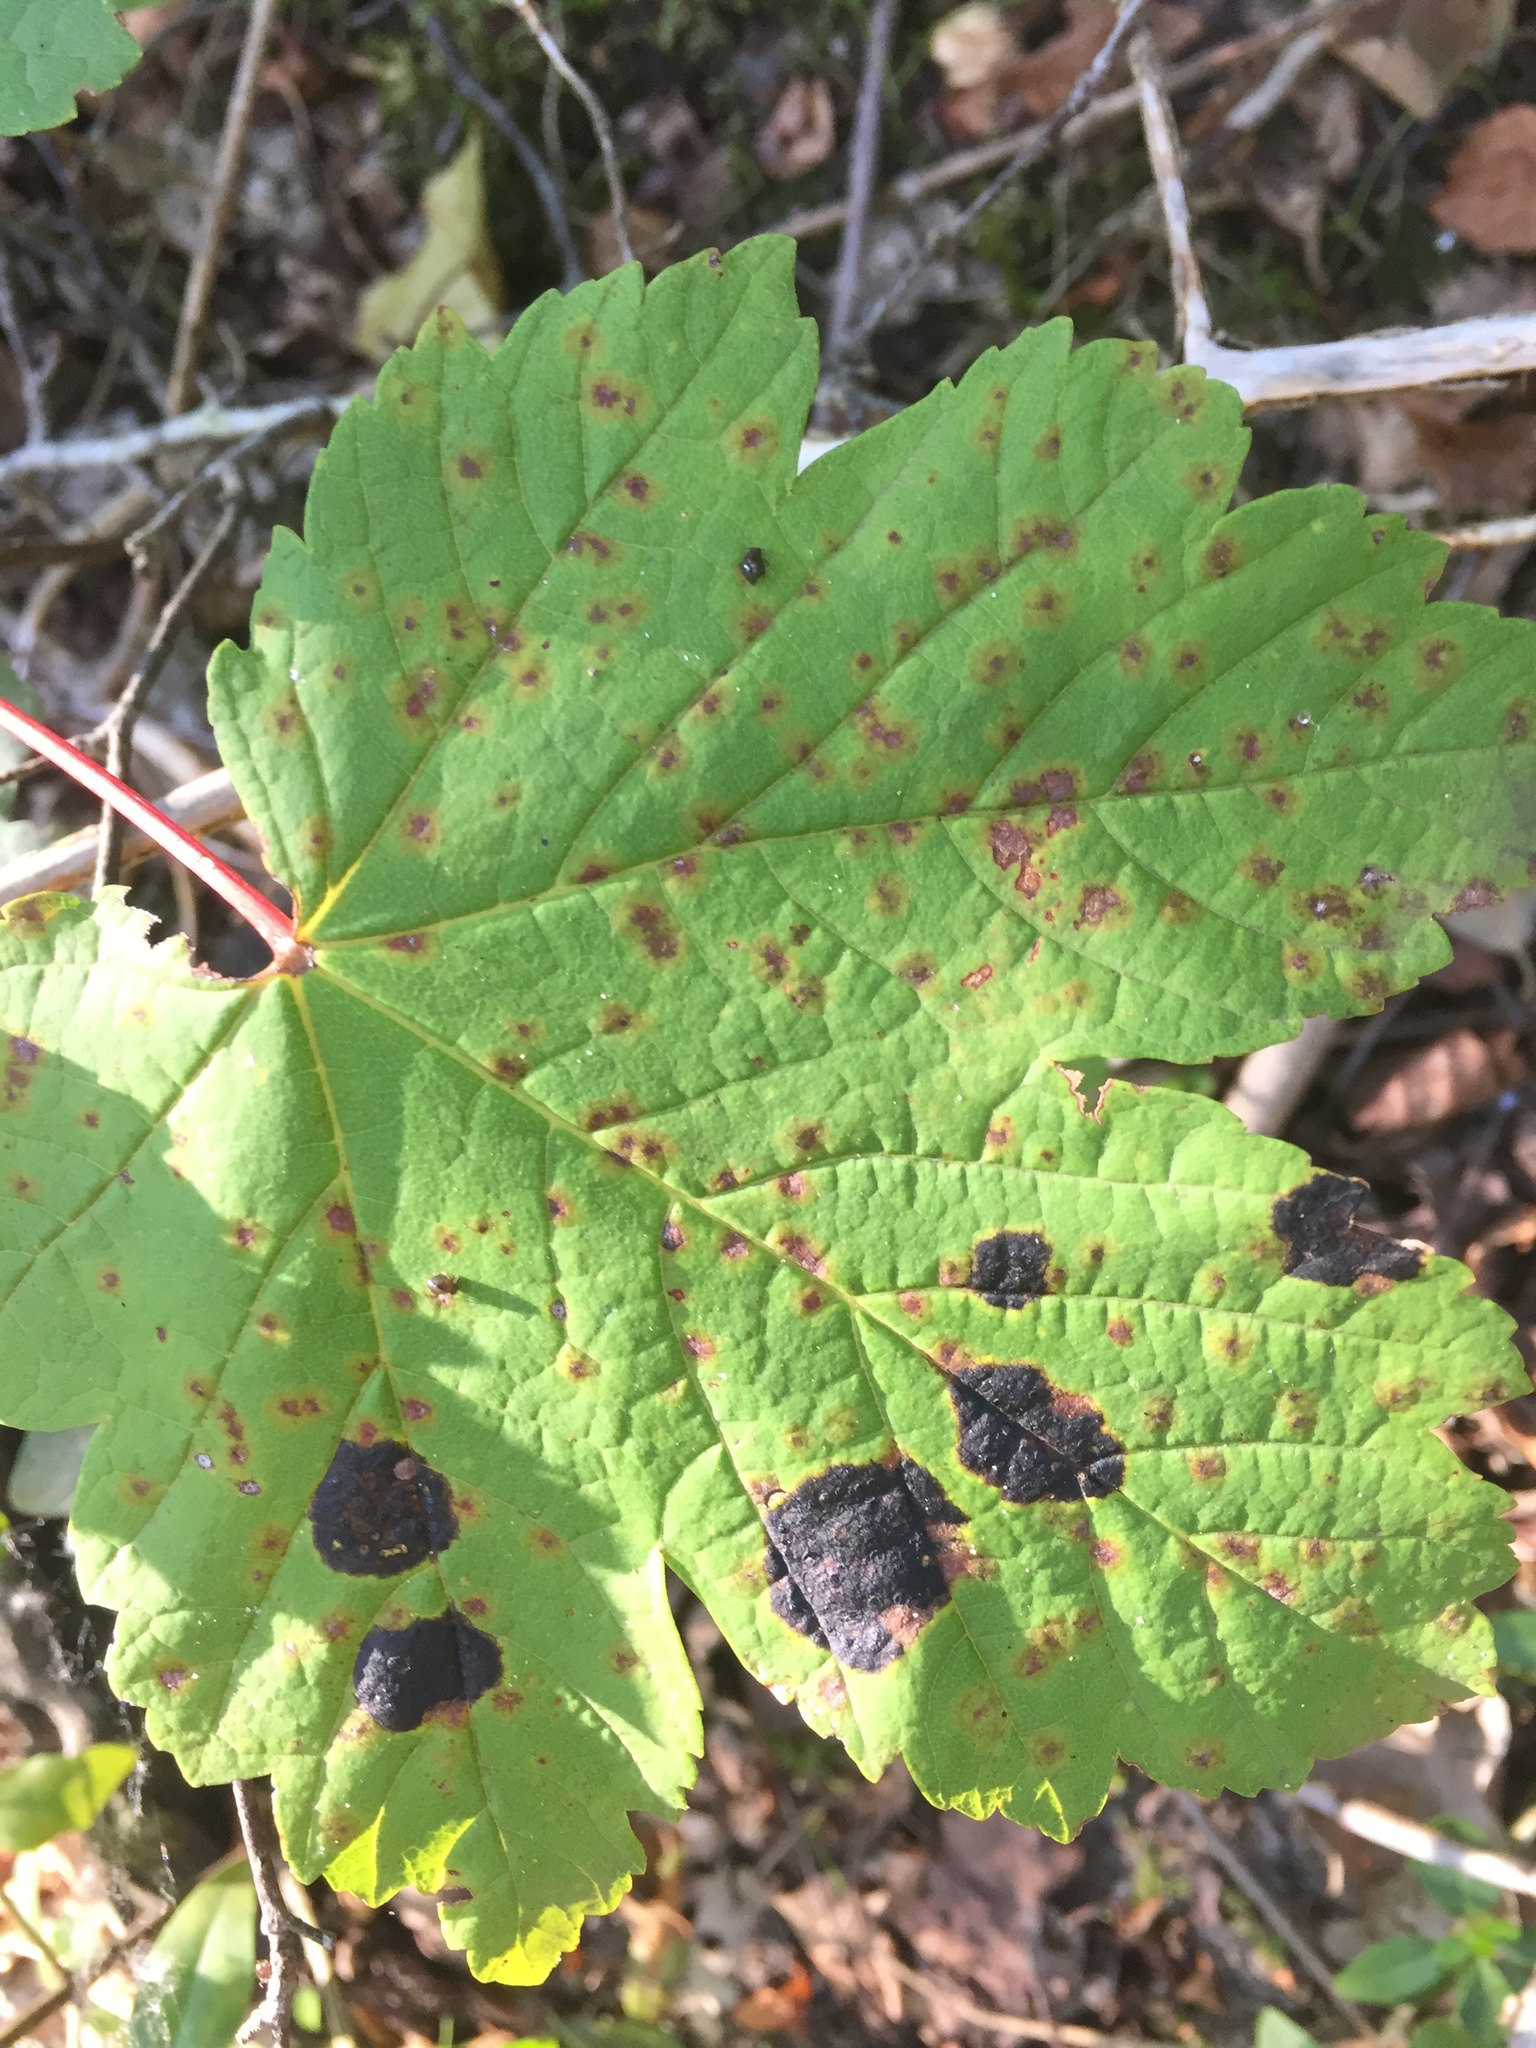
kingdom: Fungi
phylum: Ascomycota
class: Leotiomycetes
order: Rhytismatales
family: Rhytismataceae
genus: Rhytisma
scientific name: Rhytisma acerinum
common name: European tar spot
